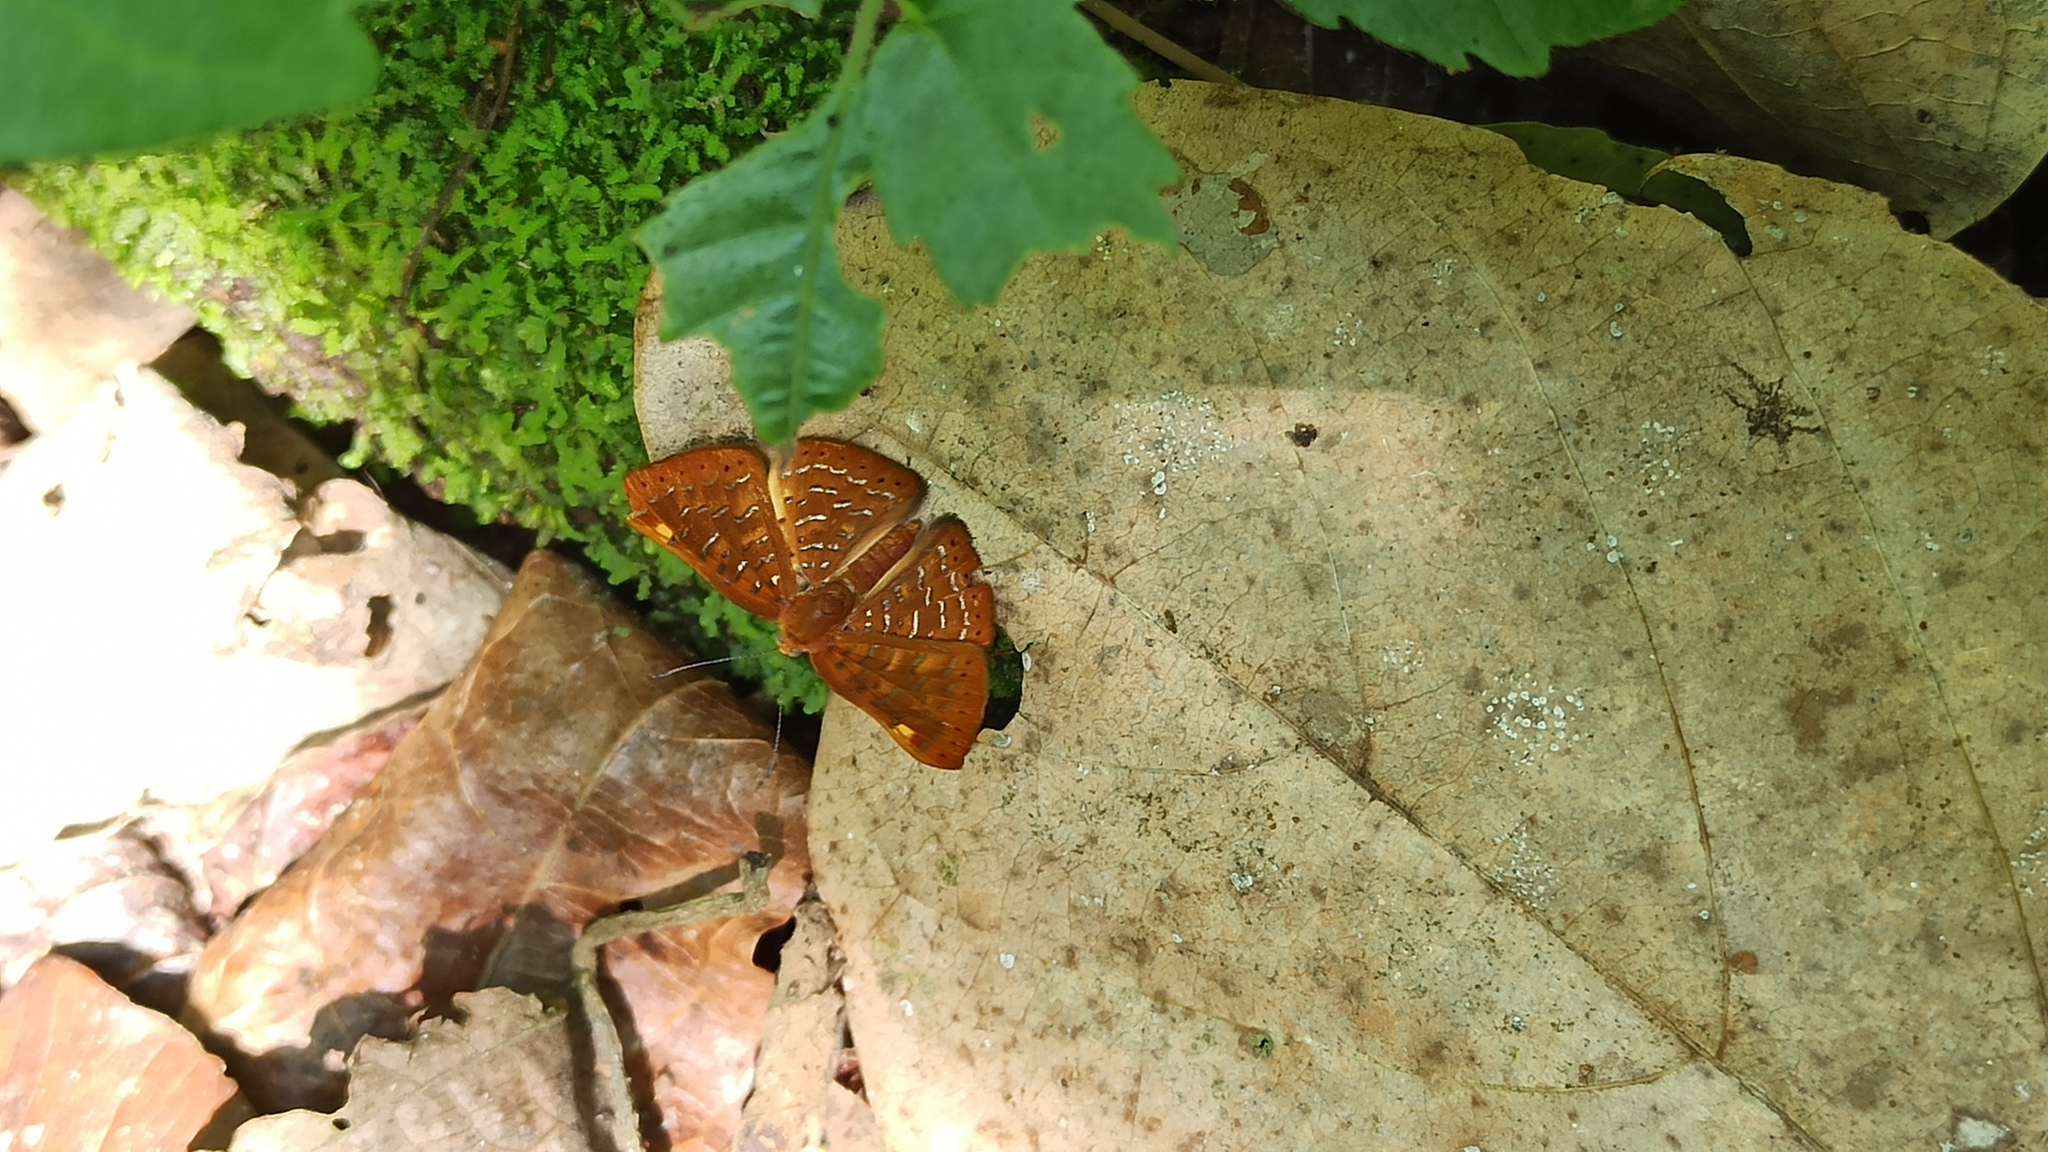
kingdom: Animalia
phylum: Arthropoda
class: Insecta
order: Lepidoptera
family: Lycaenidae
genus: Emesis
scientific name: Emesis cereus
